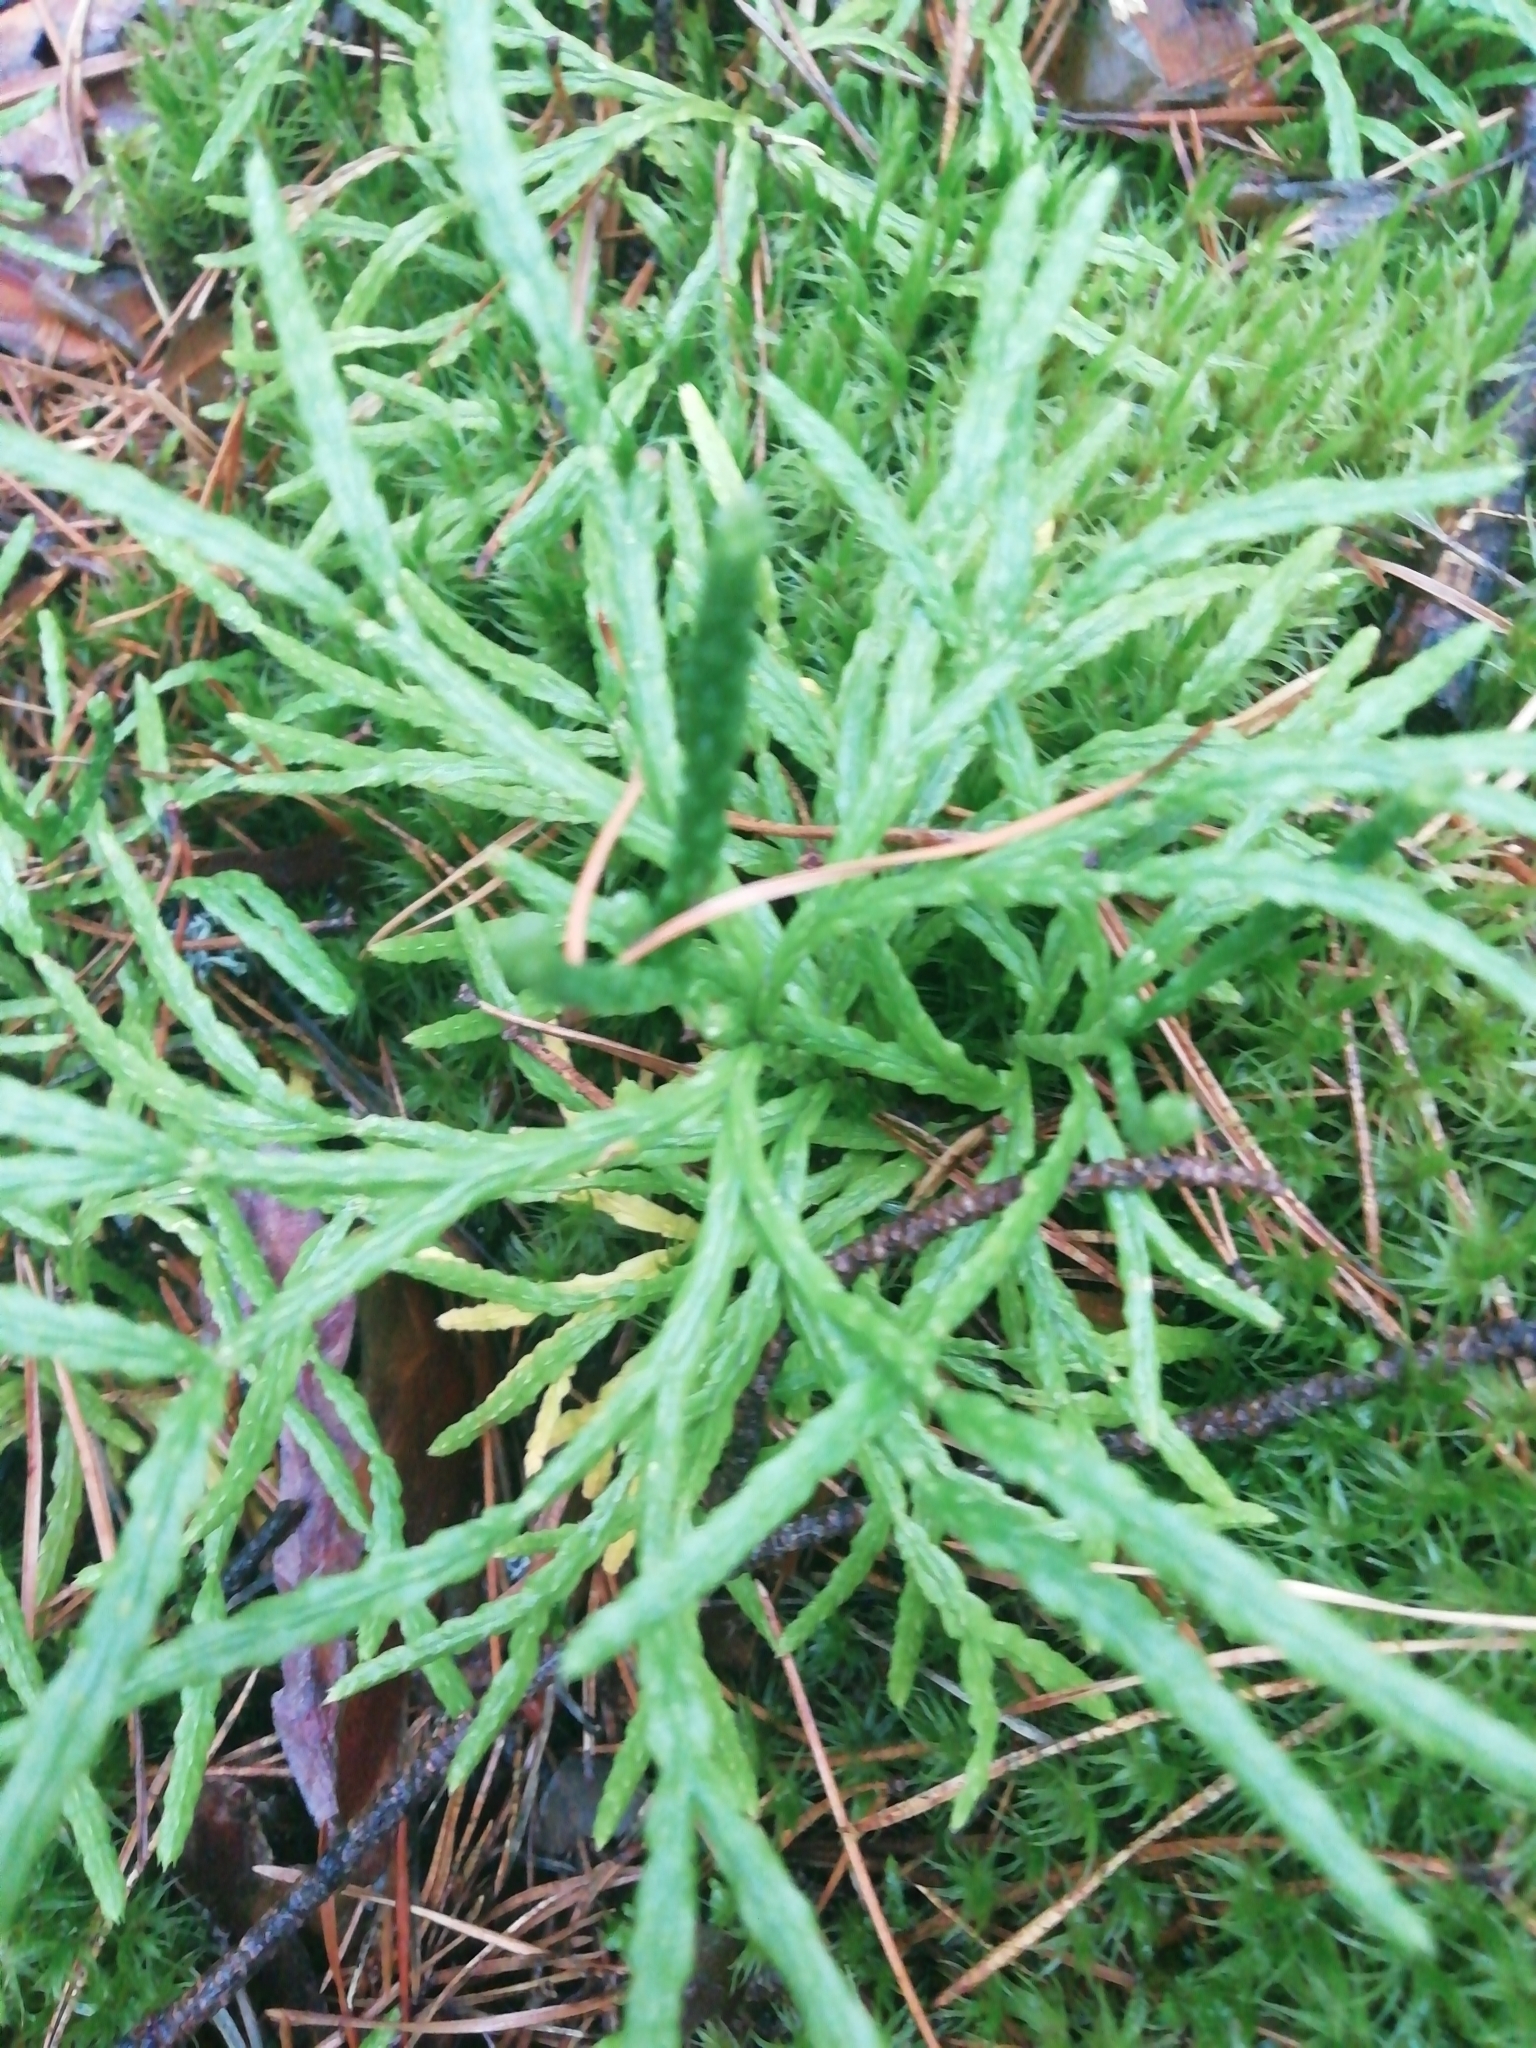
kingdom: Plantae
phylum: Tracheophyta
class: Lycopodiopsida
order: Lycopodiales
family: Lycopodiaceae
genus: Diphasiastrum
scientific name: Diphasiastrum complanatum
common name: Northern running-pine
